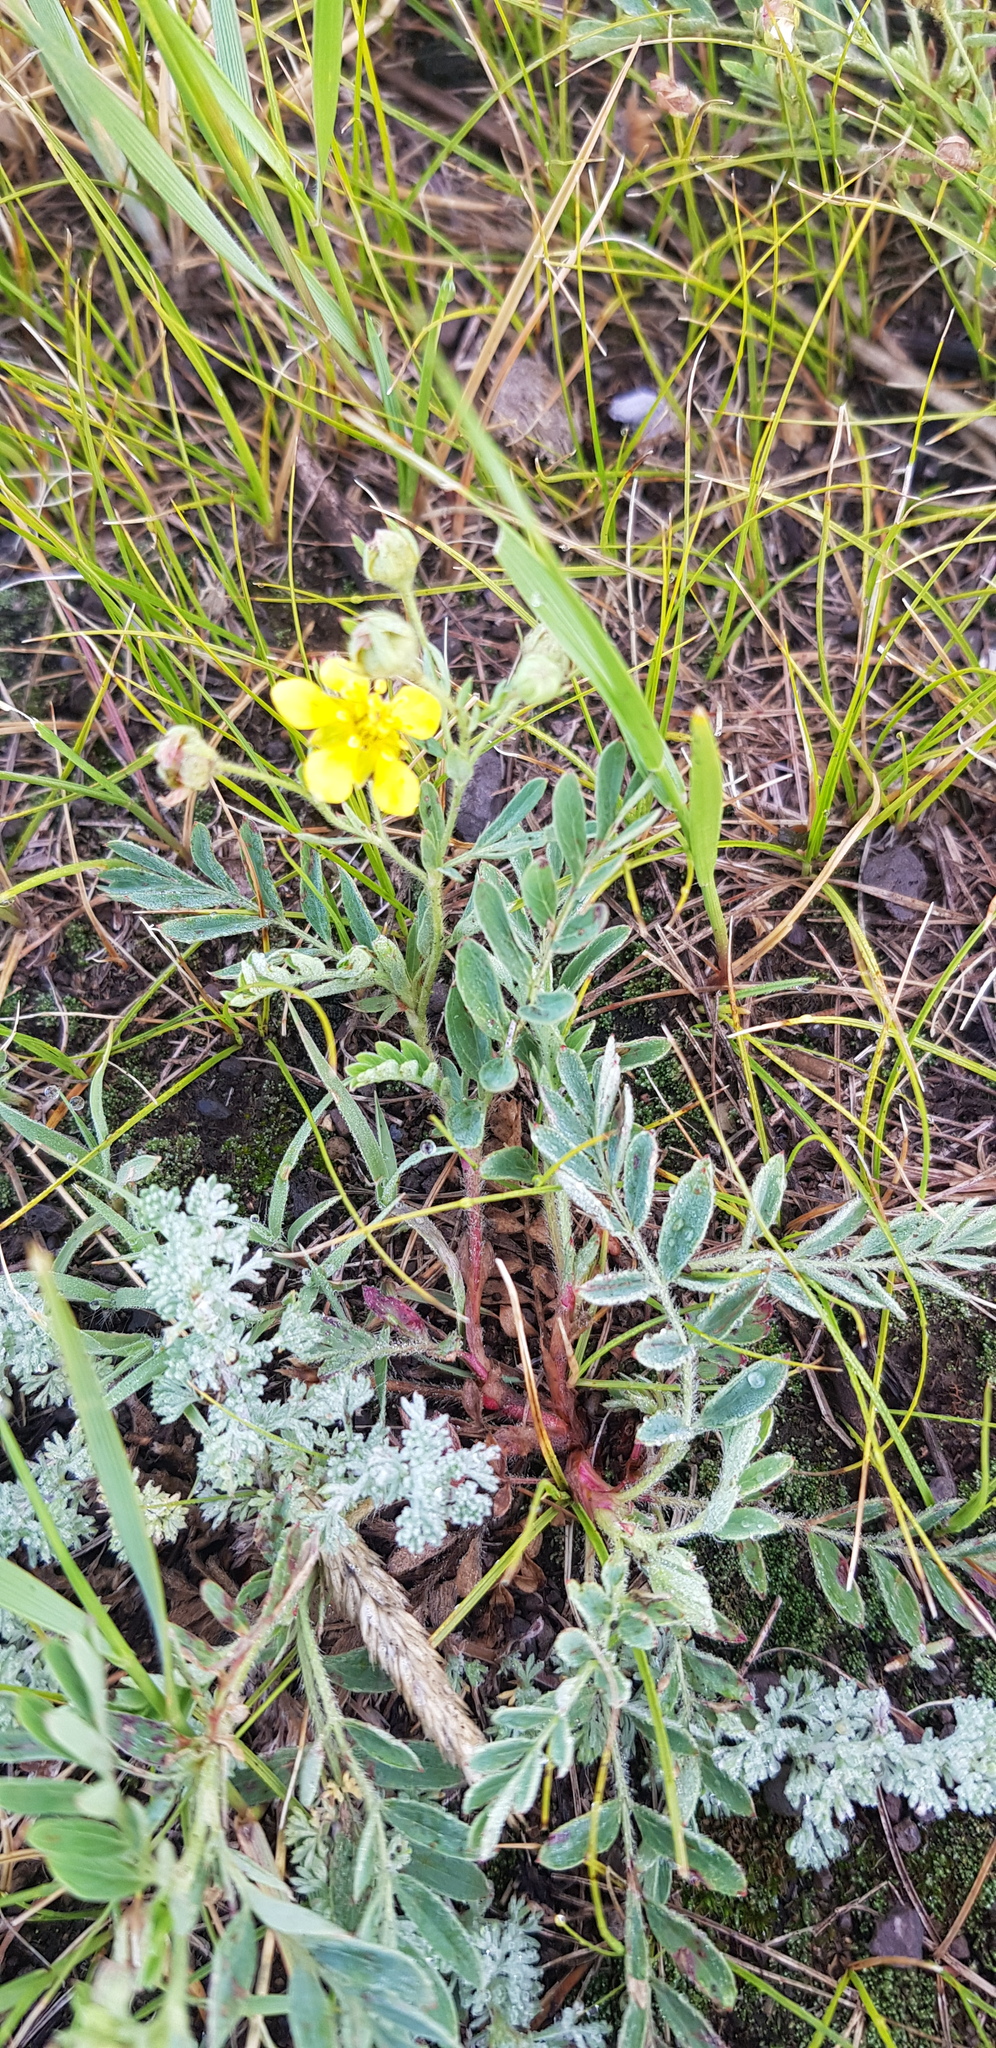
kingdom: Plantae
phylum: Tracheophyta
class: Magnoliopsida
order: Rosales
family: Rosaceae
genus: Sibbaldianthe
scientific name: Sibbaldianthe bifurca
